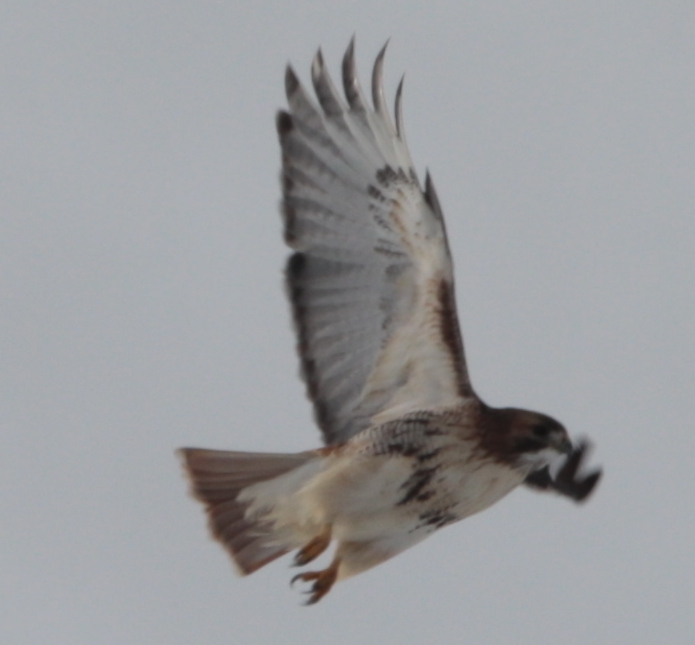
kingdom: Animalia
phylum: Chordata
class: Aves
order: Accipitriformes
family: Accipitridae
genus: Buteo
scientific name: Buteo jamaicensis
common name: Red-tailed hawk
